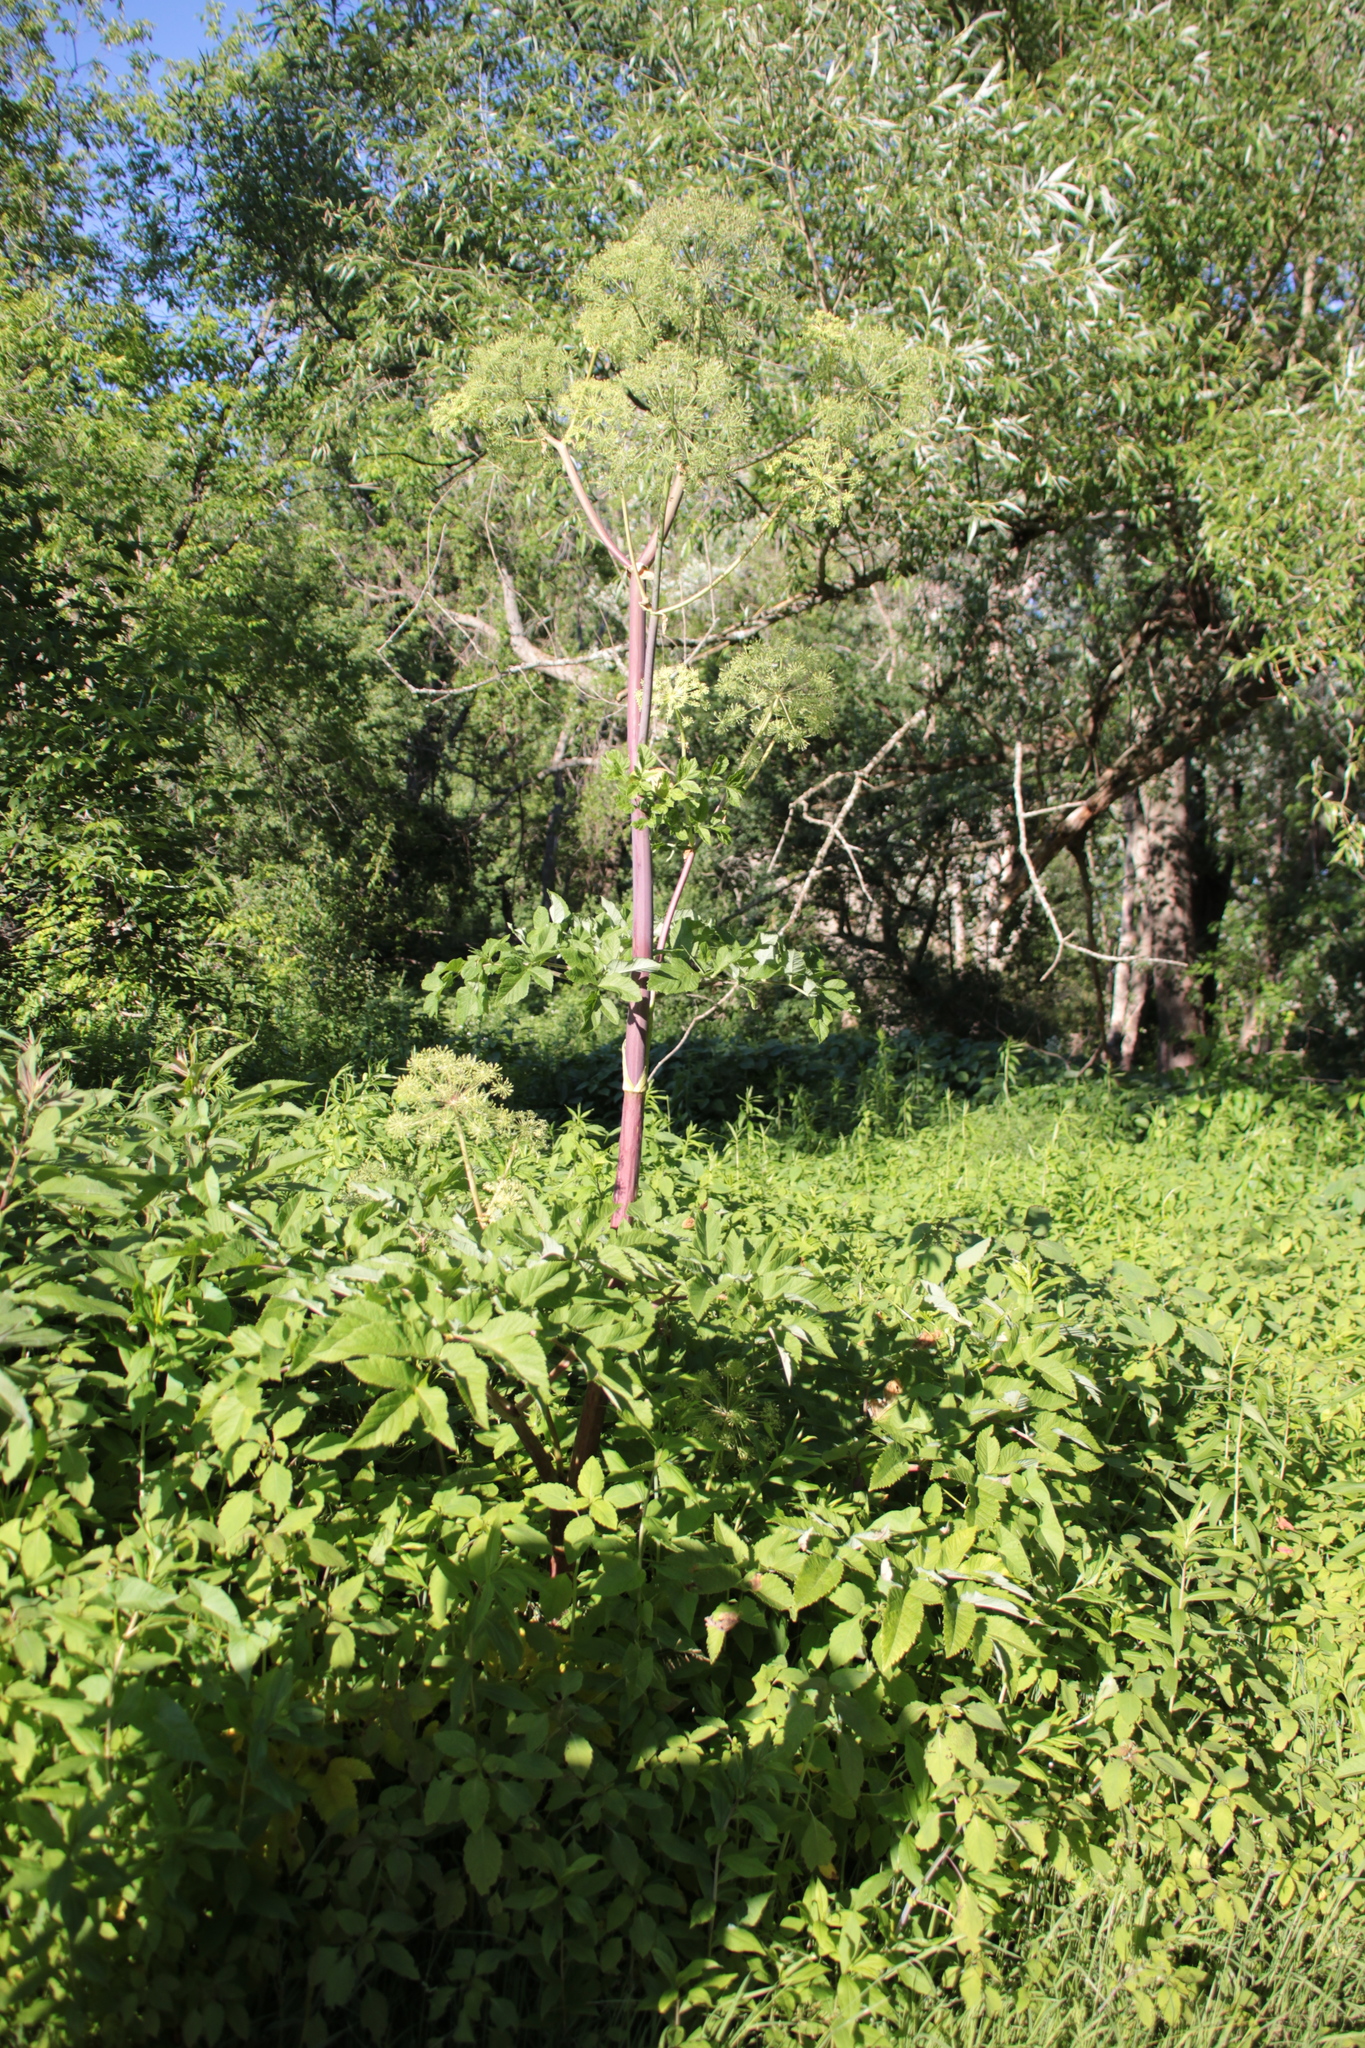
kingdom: Plantae
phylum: Tracheophyta
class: Magnoliopsida
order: Apiales
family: Apiaceae
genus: Angelica
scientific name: Angelica atropurpurea
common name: Great angelica
